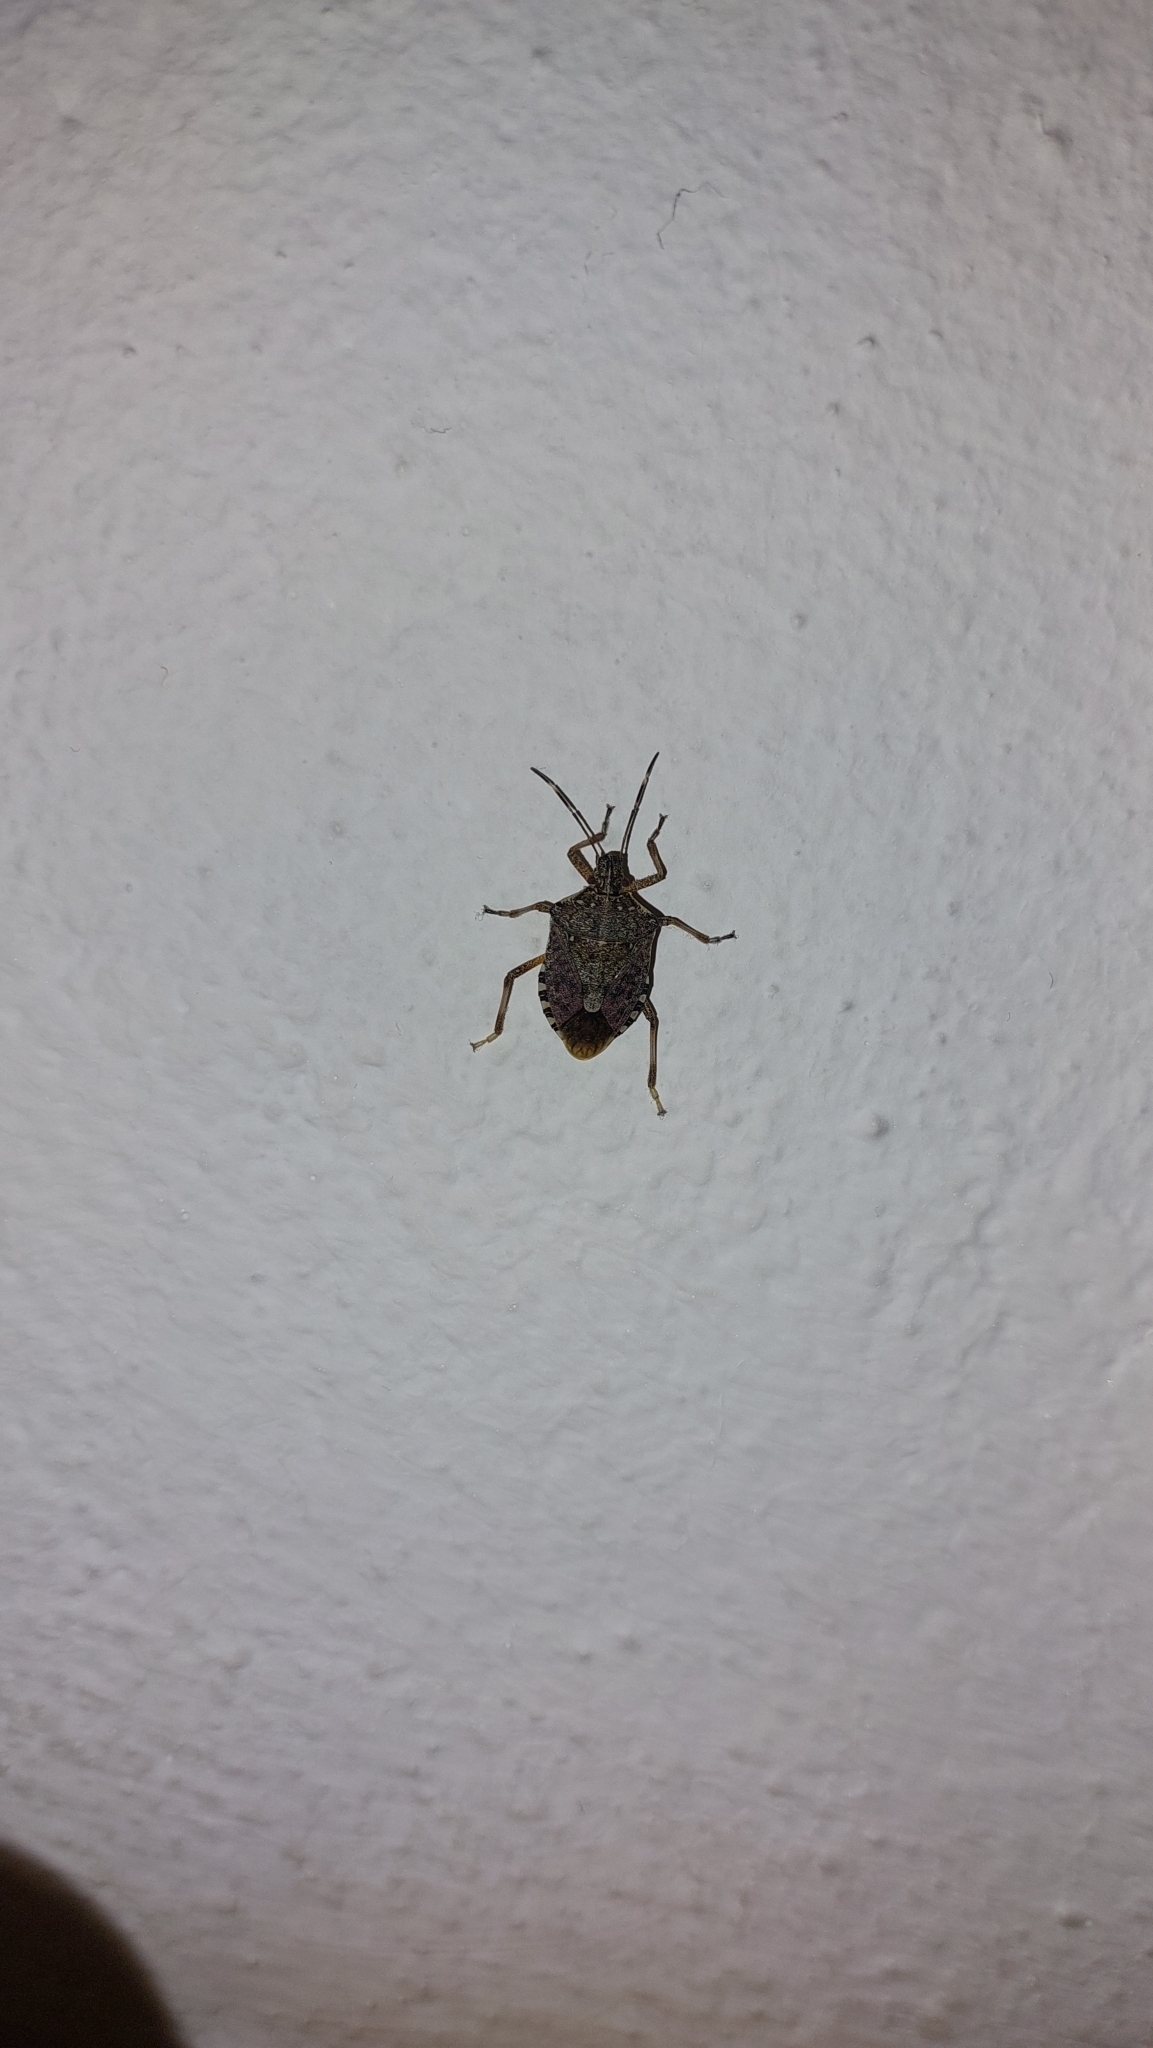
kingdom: Animalia
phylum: Arthropoda
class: Insecta
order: Hemiptera
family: Pentatomidae
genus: Halyomorpha
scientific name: Halyomorpha halys
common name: Brown marmorated stink bug
